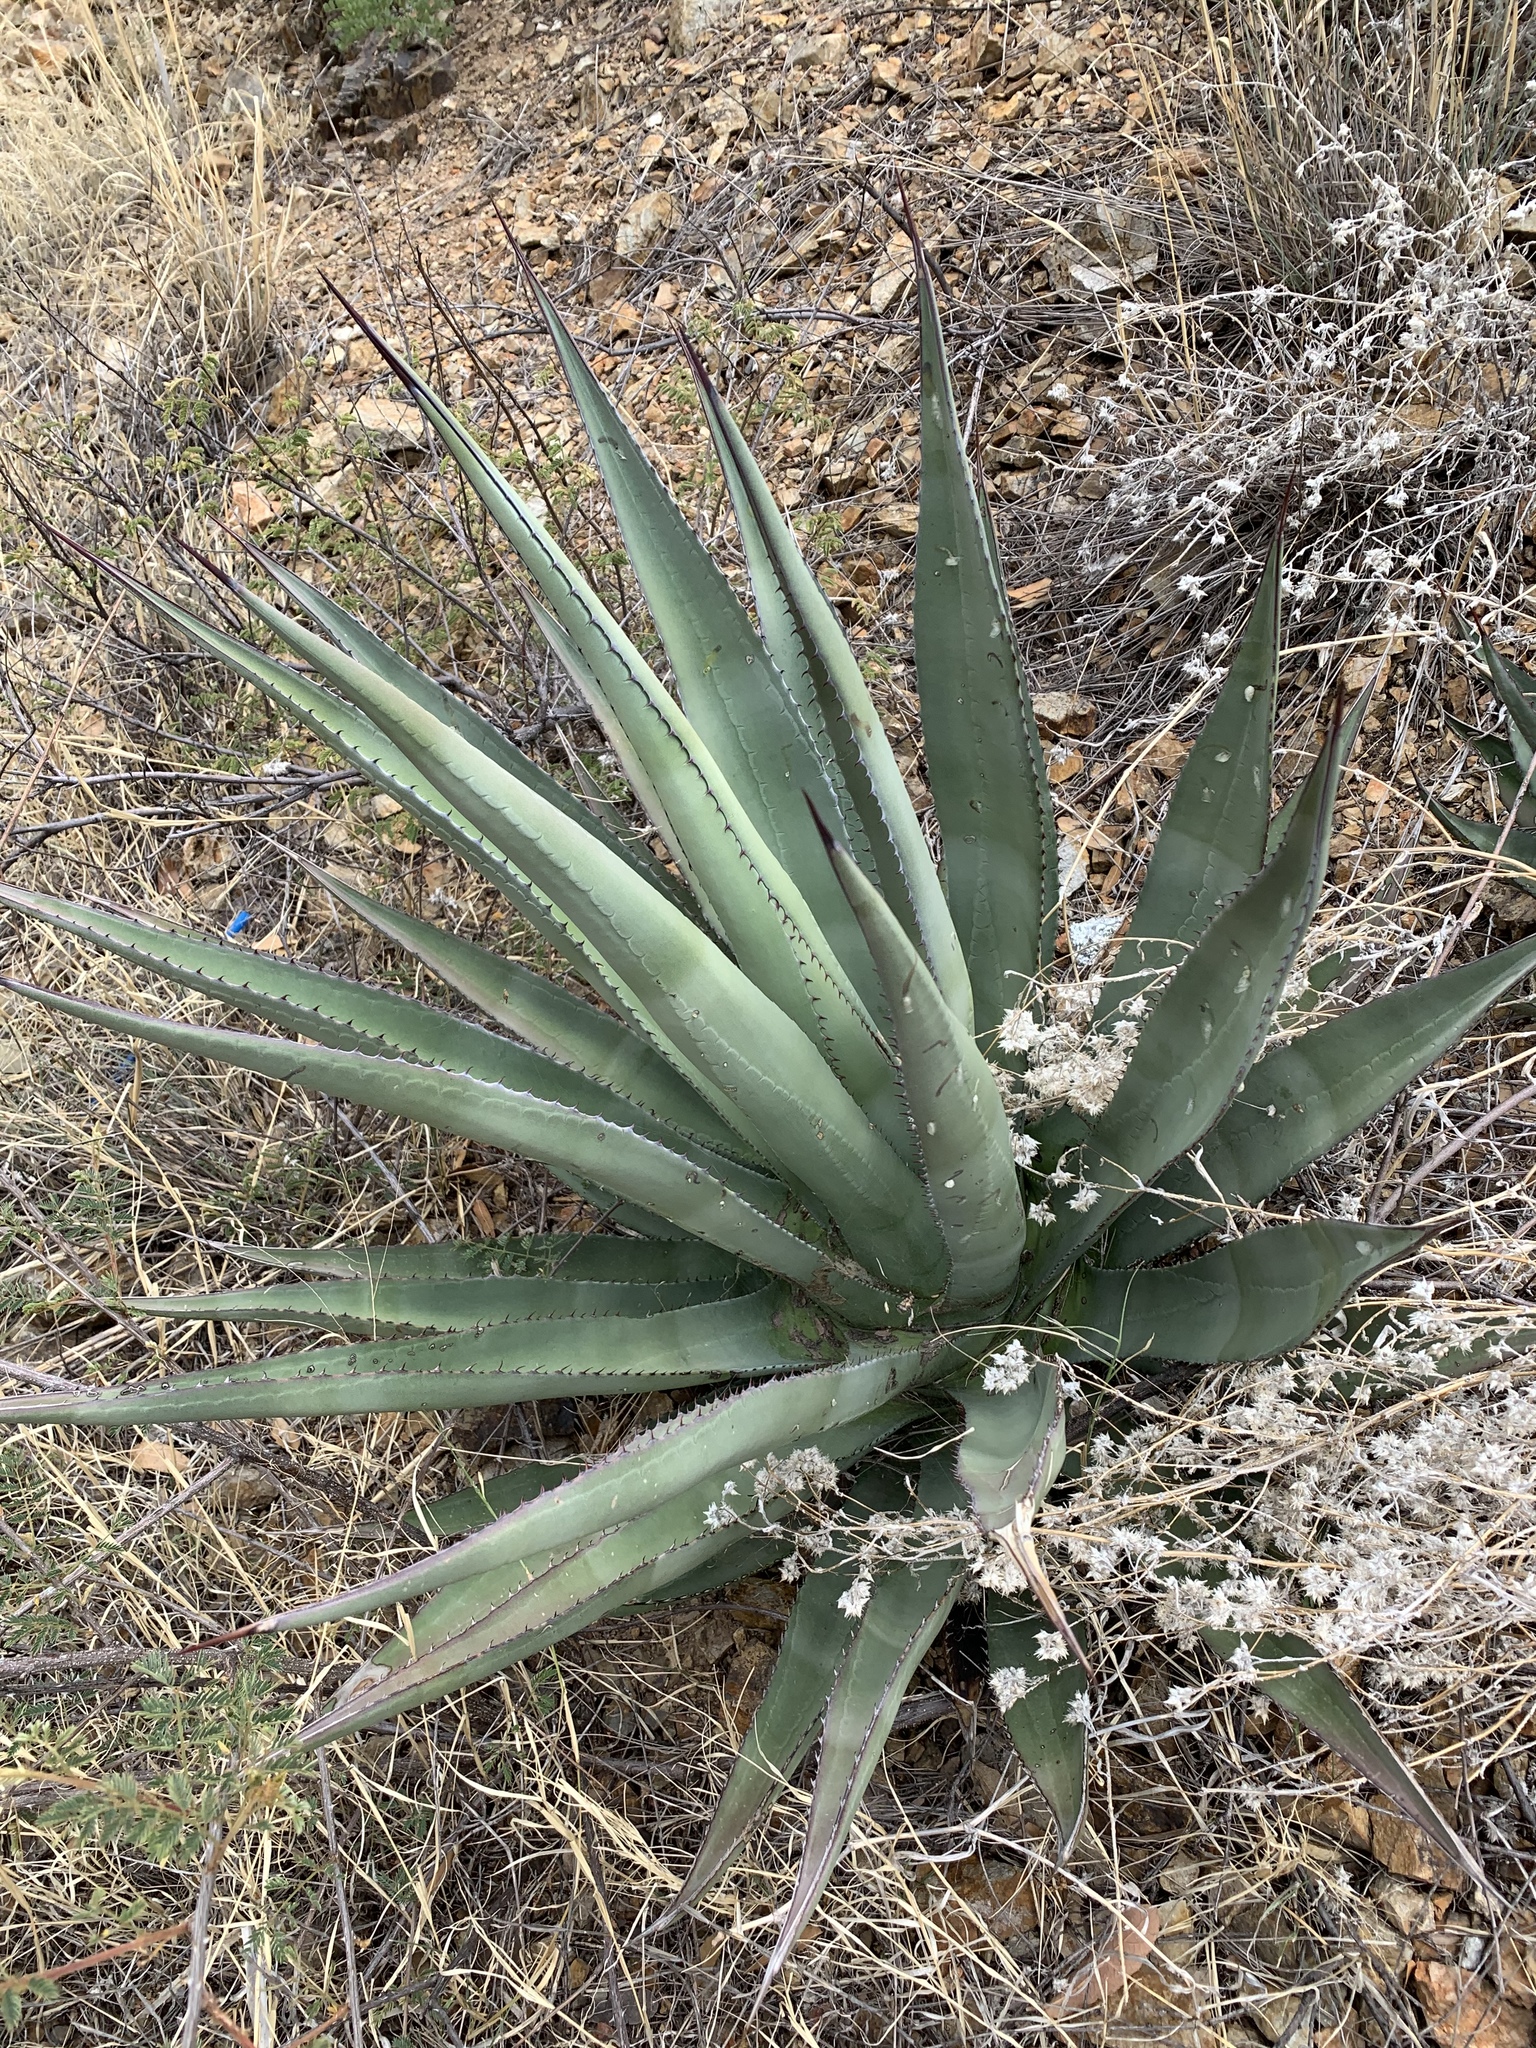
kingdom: Plantae
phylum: Tracheophyta
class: Liliopsida
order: Asparagales
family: Asparagaceae
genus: Agave
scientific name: Agave palmeri
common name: Palmer agave
